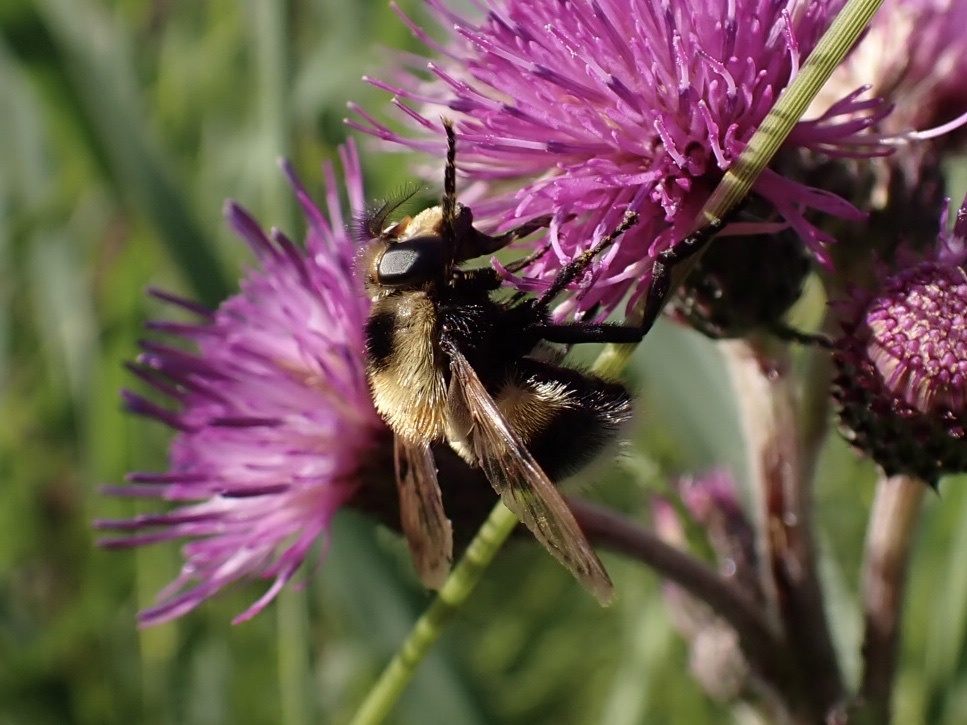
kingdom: Animalia
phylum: Arthropoda
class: Insecta
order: Diptera
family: Syrphidae
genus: Volucella
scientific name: Volucella bombylans
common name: Bumble bee hover fly
